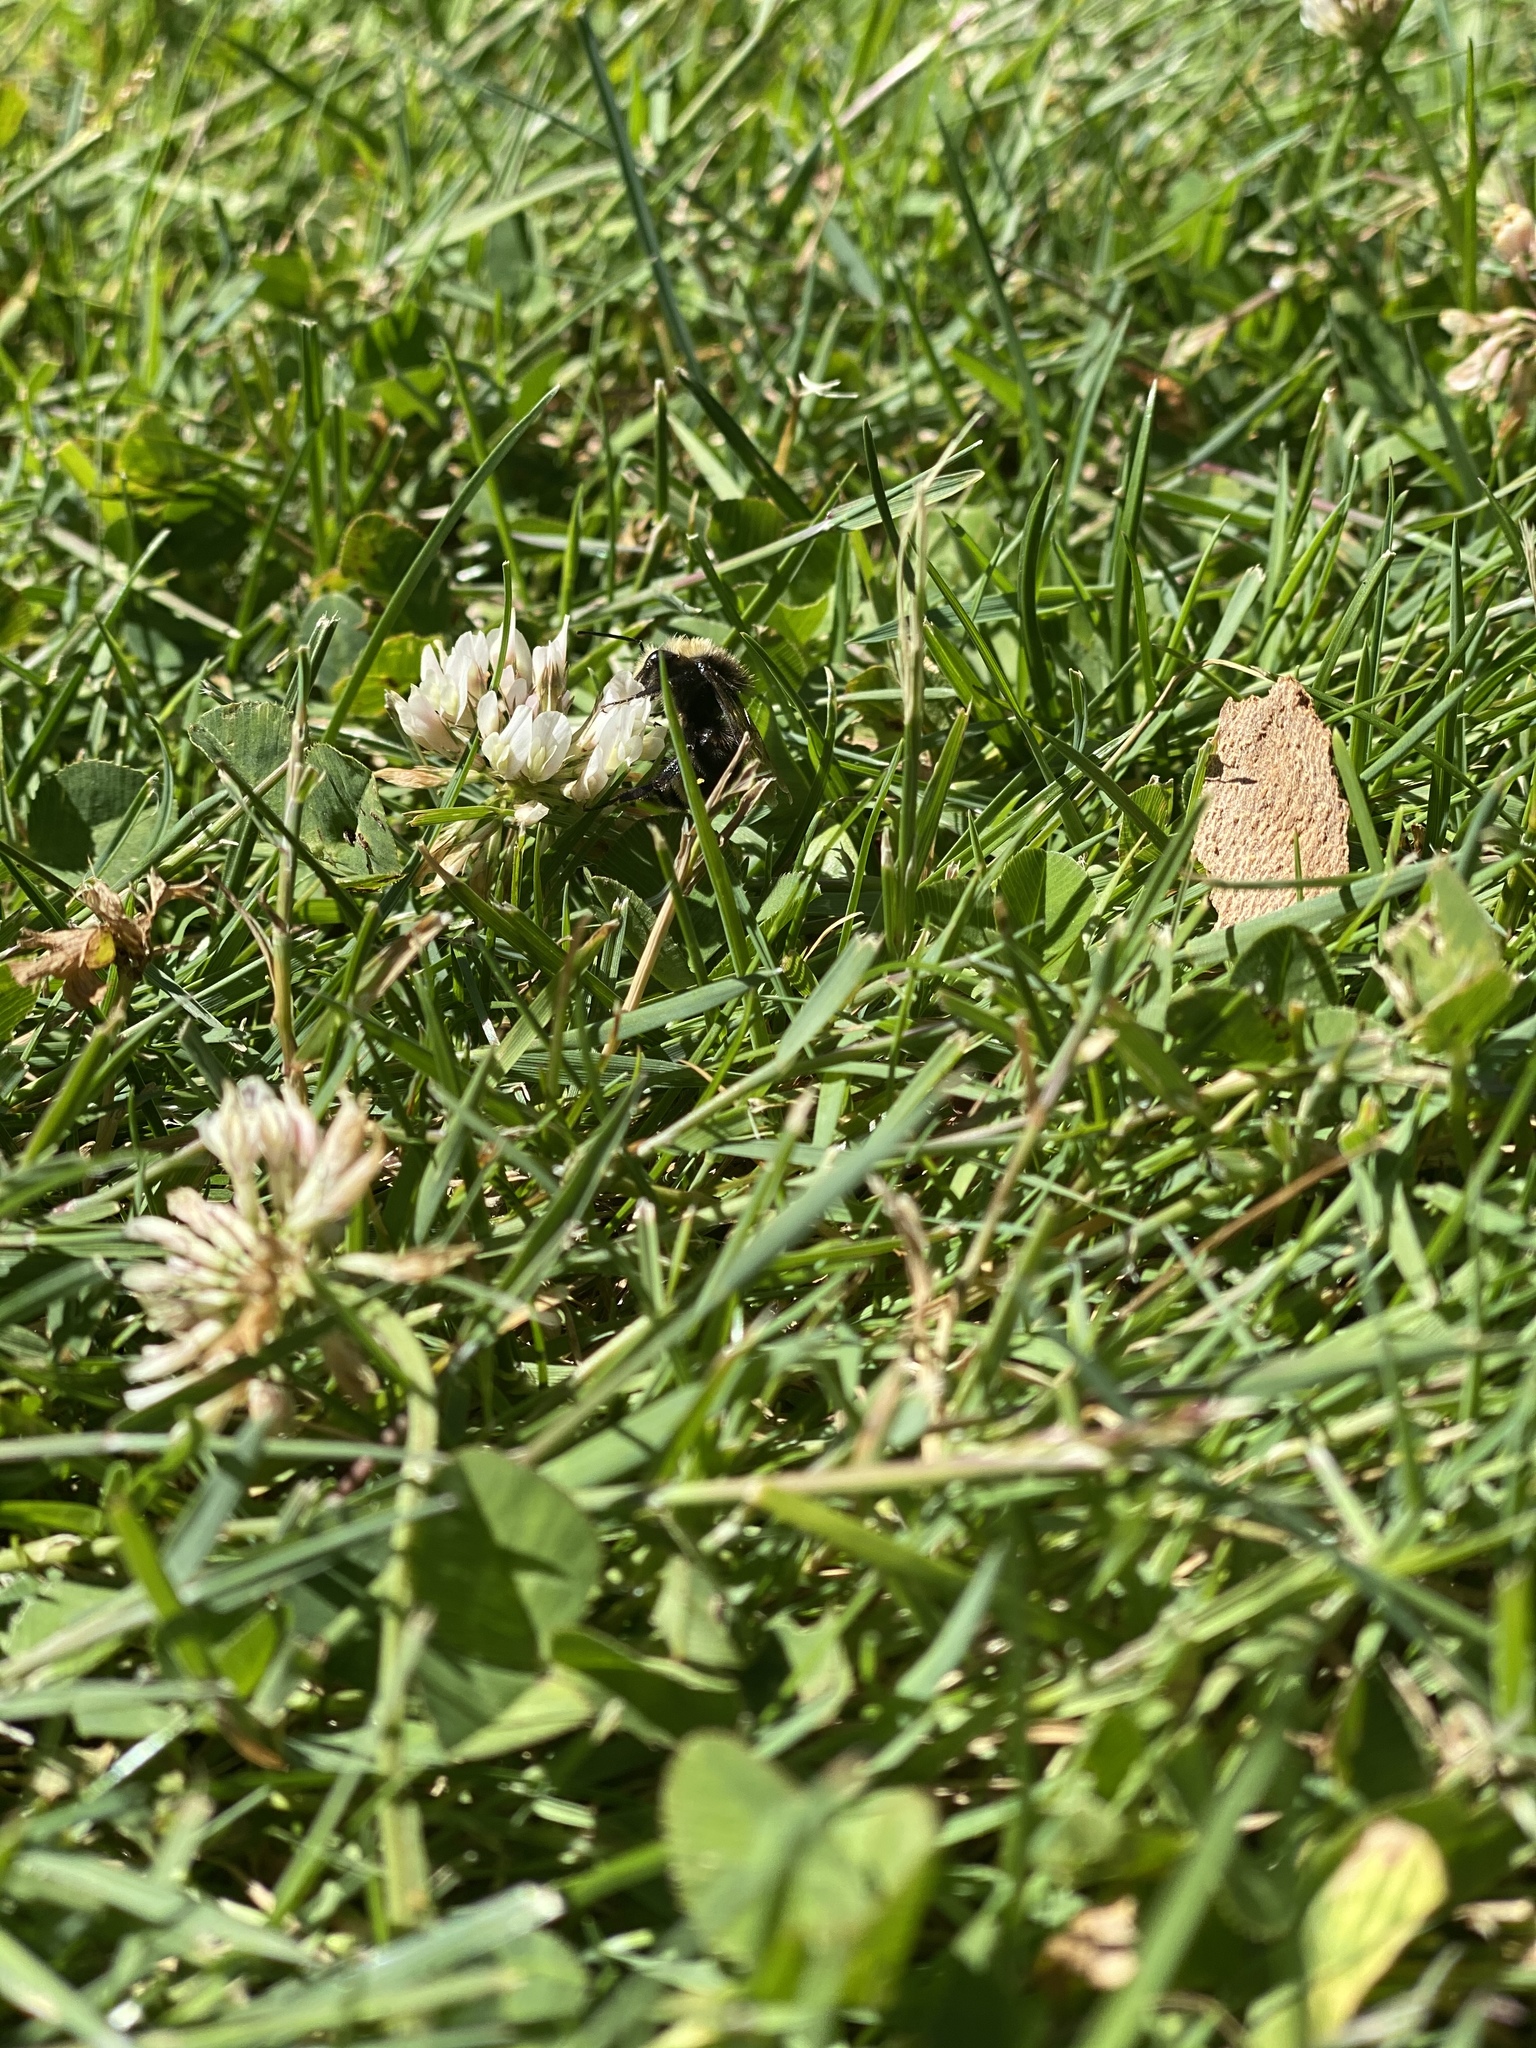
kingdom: Plantae
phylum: Tracheophyta
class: Magnoliopsida
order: Fabales
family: Fabaceae
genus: Trifolium
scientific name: Trifolium repens
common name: White clover
